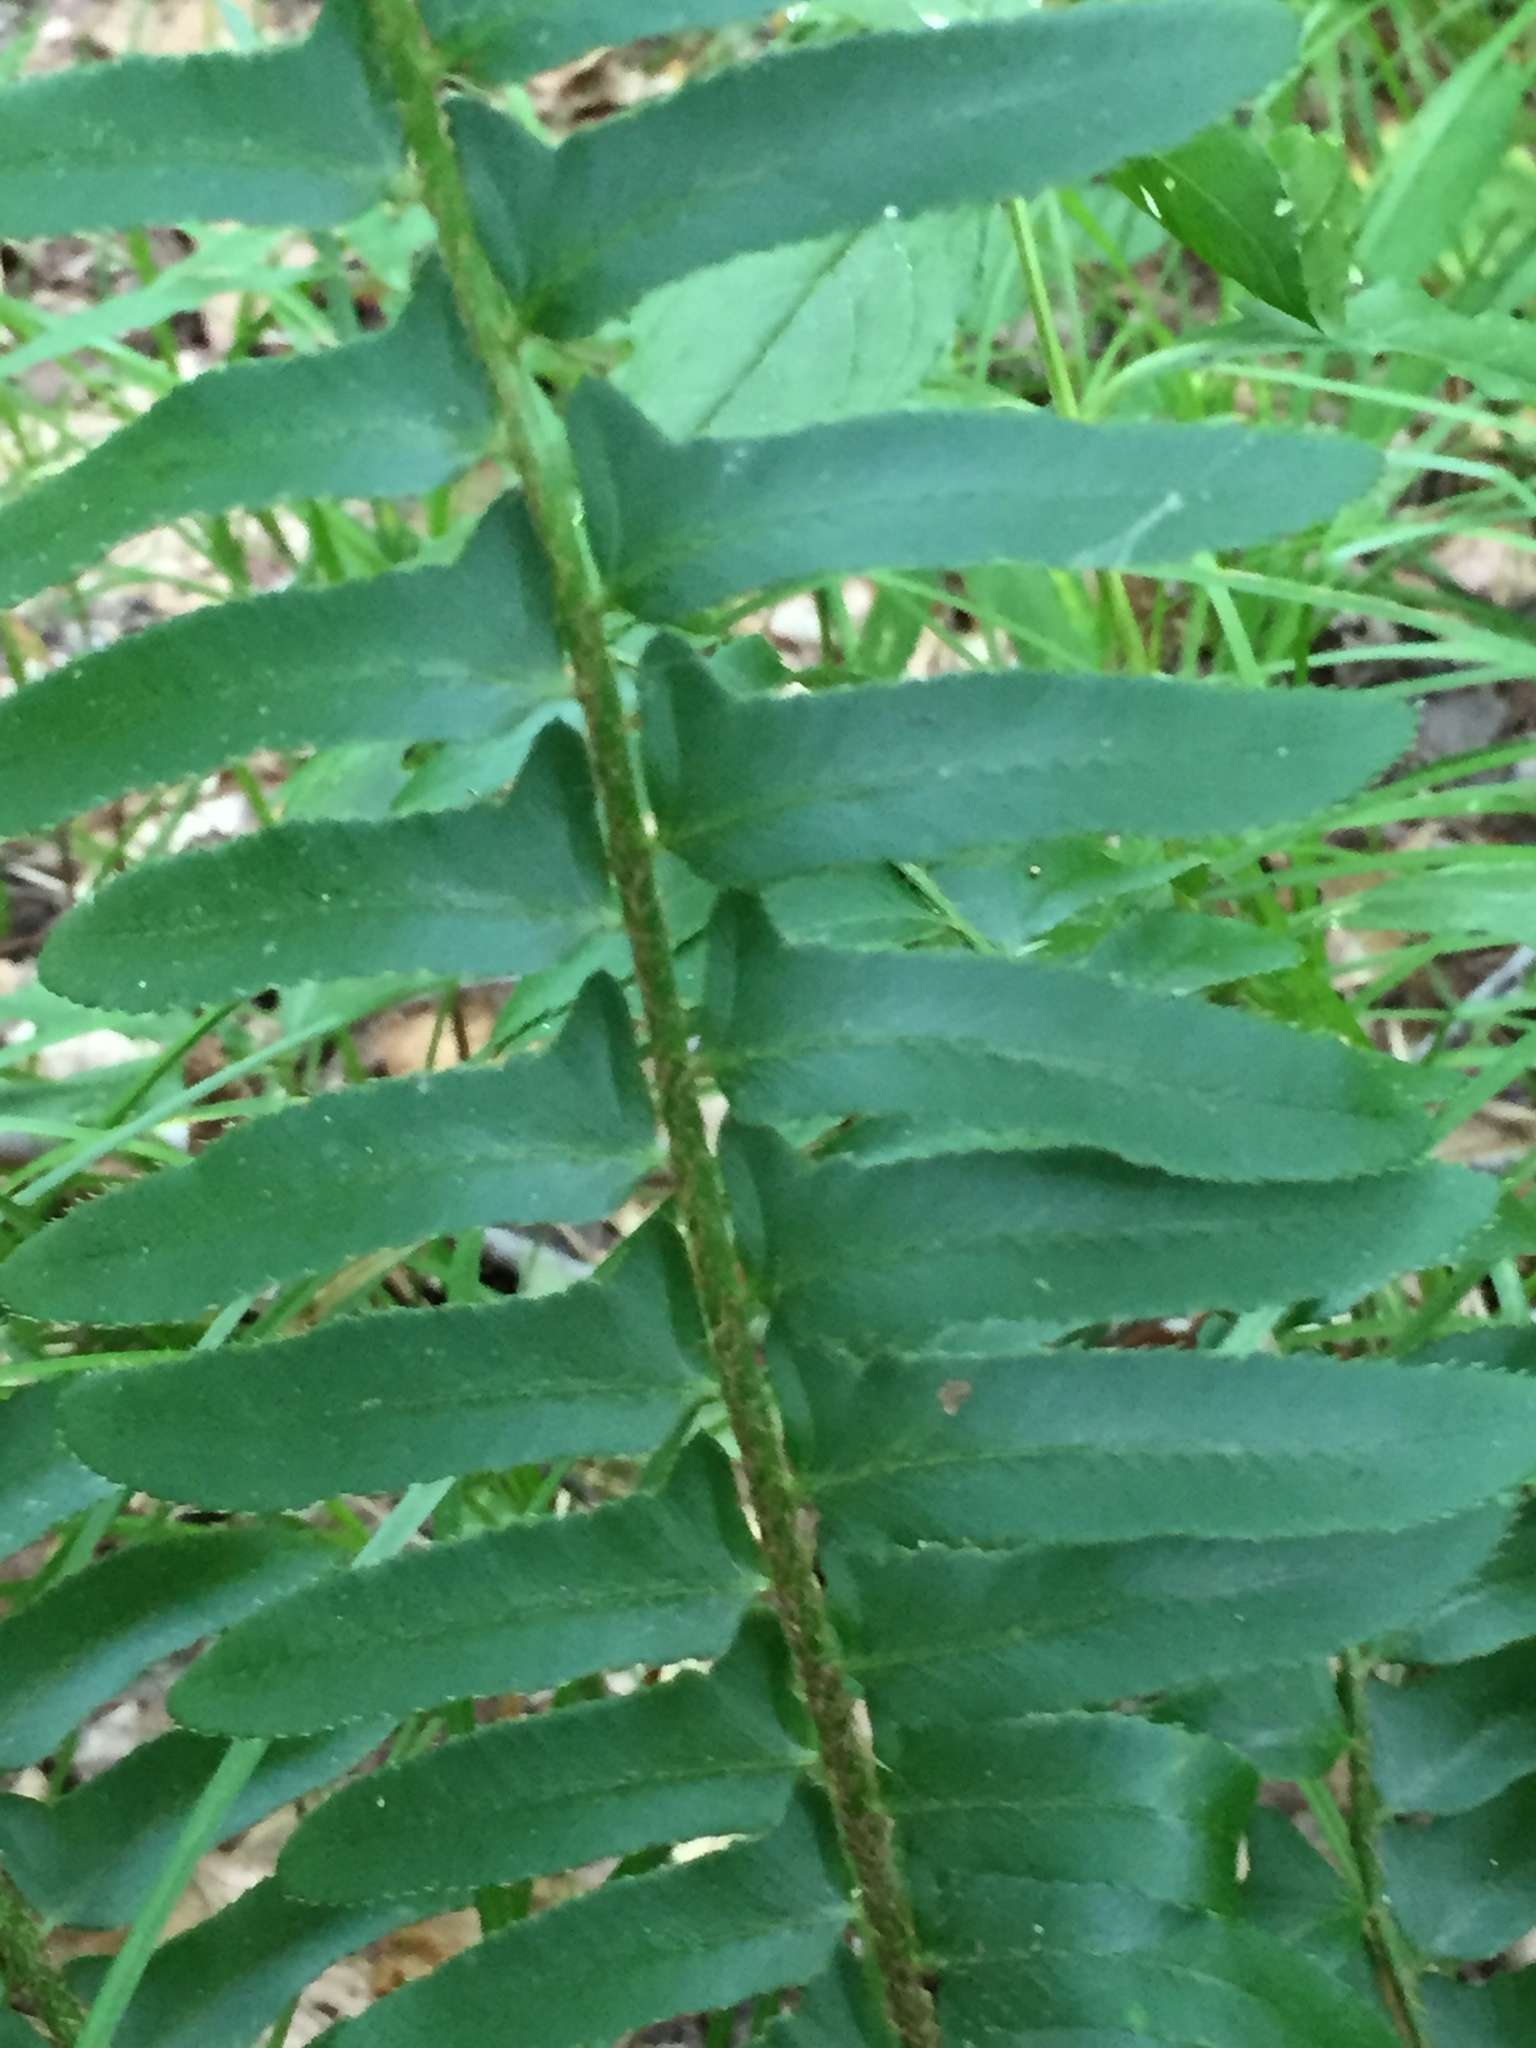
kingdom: Plantae
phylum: Tracheophyta
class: Polypodiopsida
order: Polypodiales
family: Dryopteridaceae
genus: Polystichum
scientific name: Polystichum acrostichoides
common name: Christmas fern
